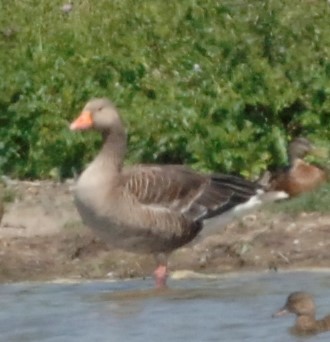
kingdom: Animalia
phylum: Chordata
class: Aves
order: Anseriformes
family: Anatidae
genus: Anser
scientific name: Anser anser
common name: Greylag goose
